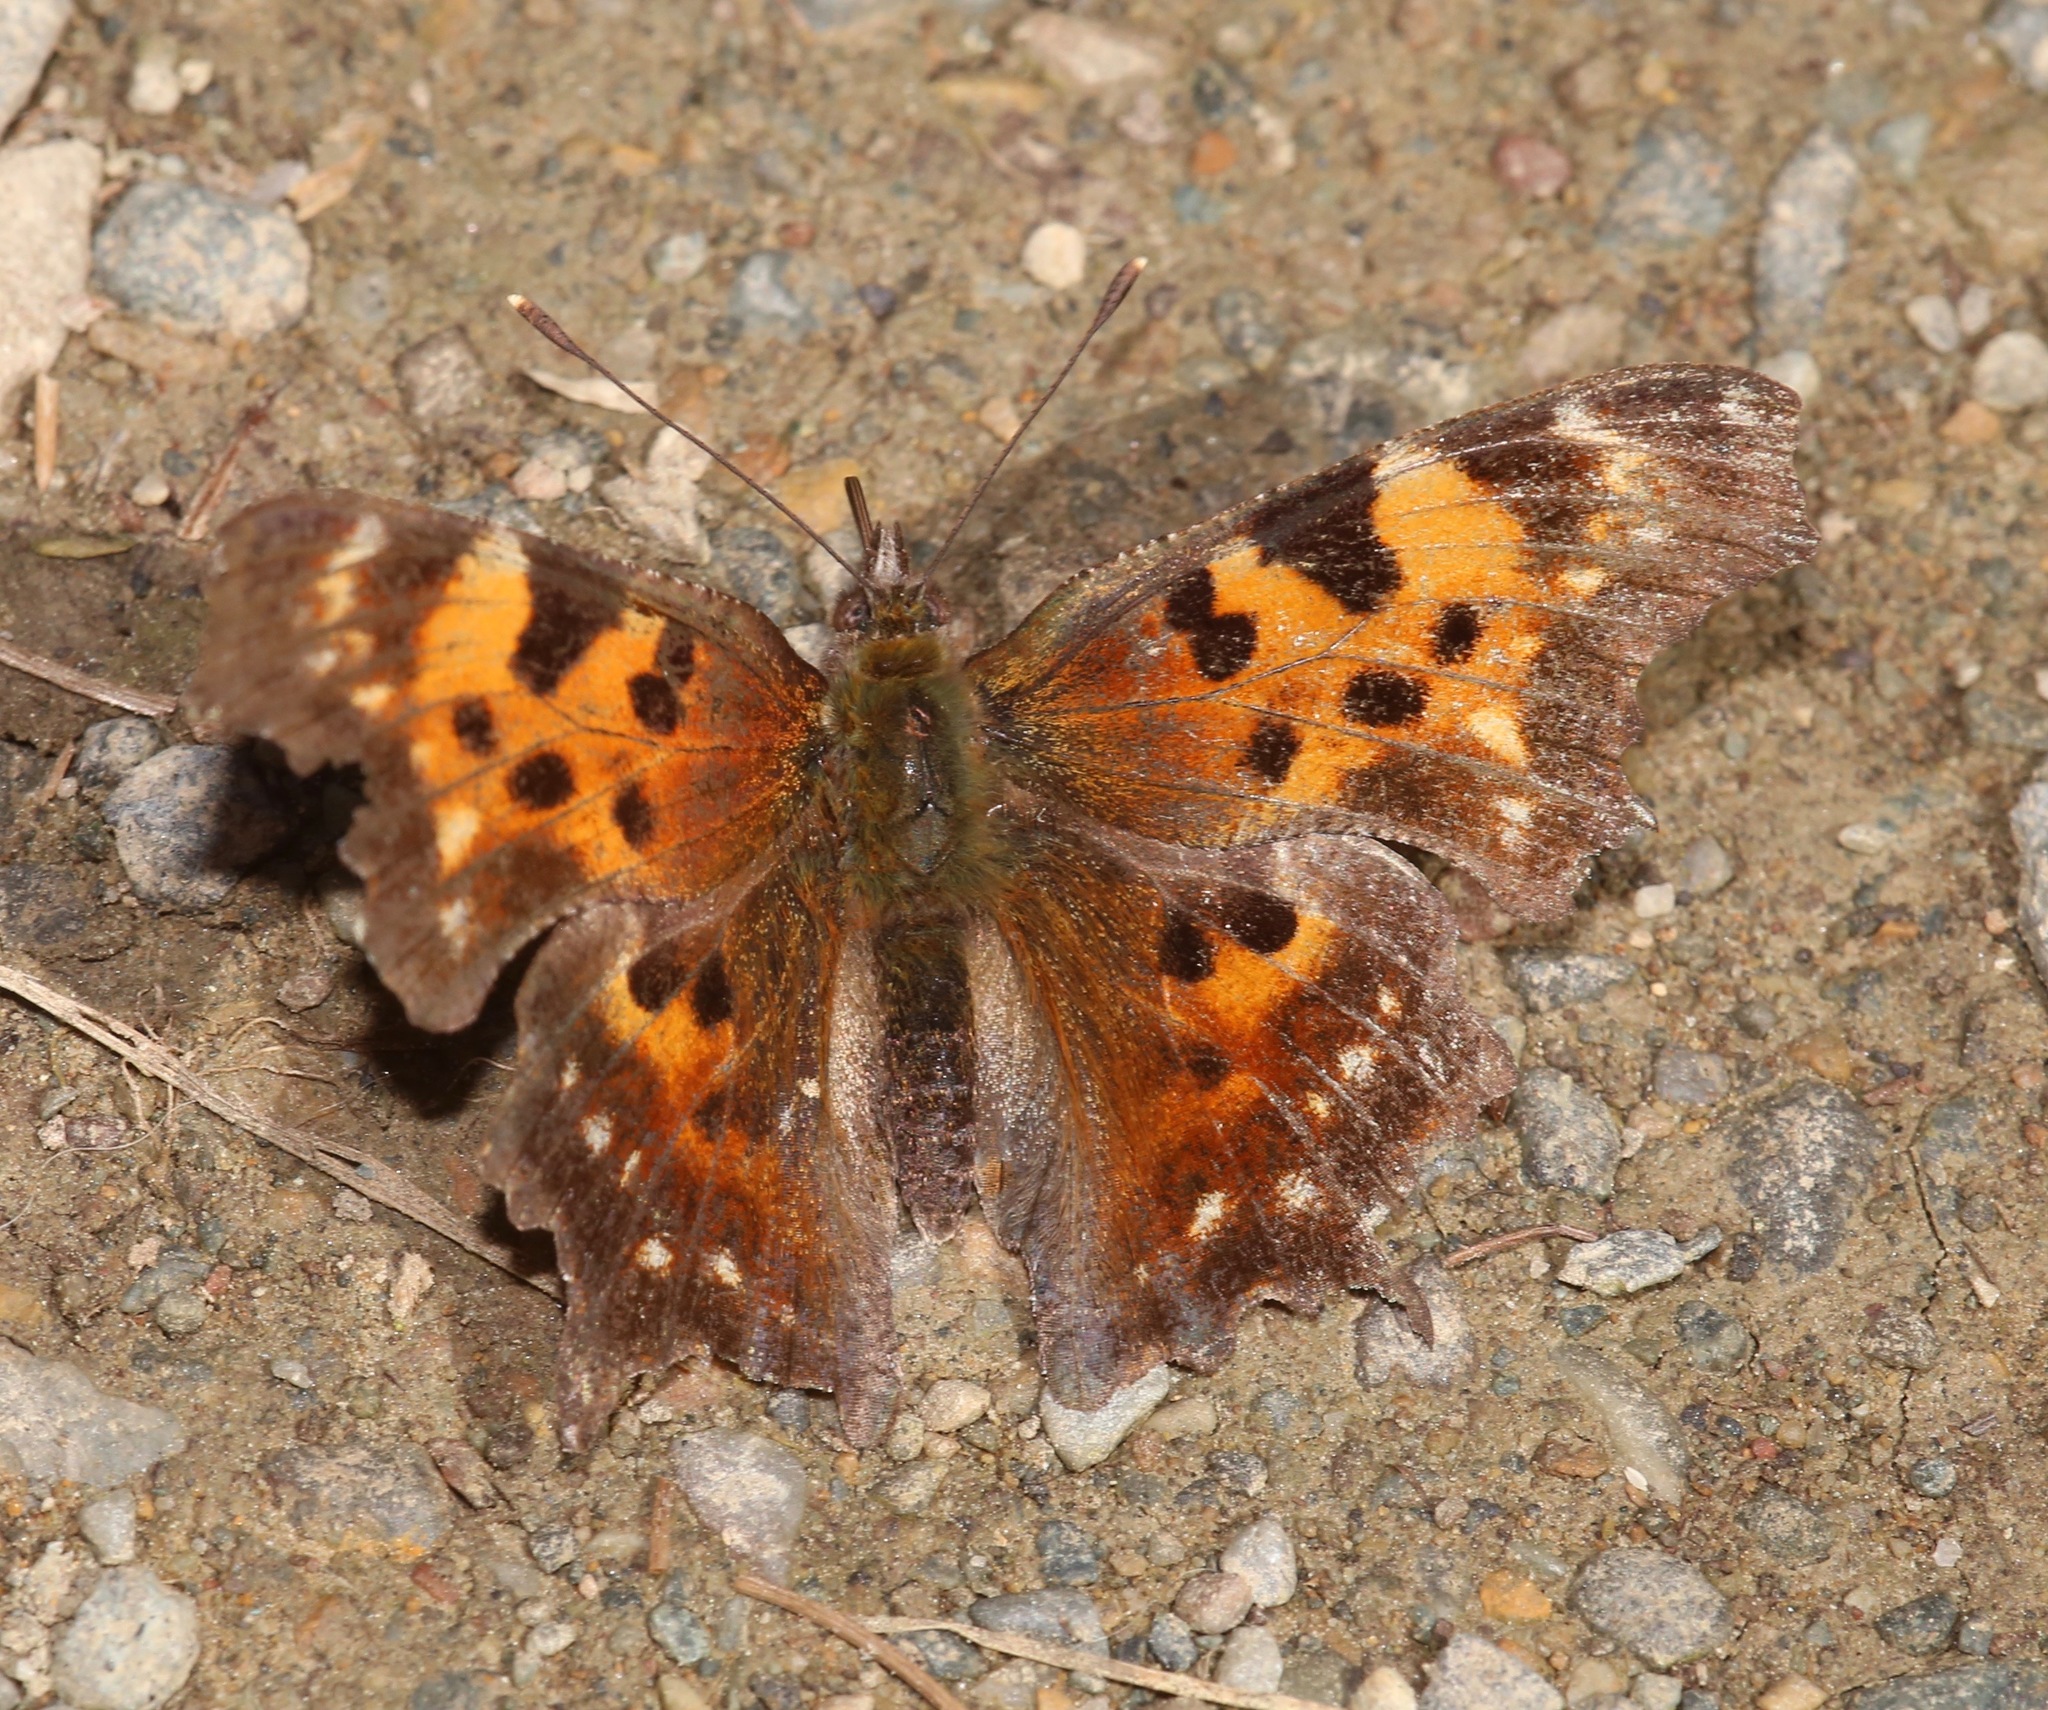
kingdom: Animalia
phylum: Arthropoda
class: Insecta
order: Lepidoptera
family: Nymphalidae
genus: Polygonia
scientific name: Polygonia faunus
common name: Green comma
